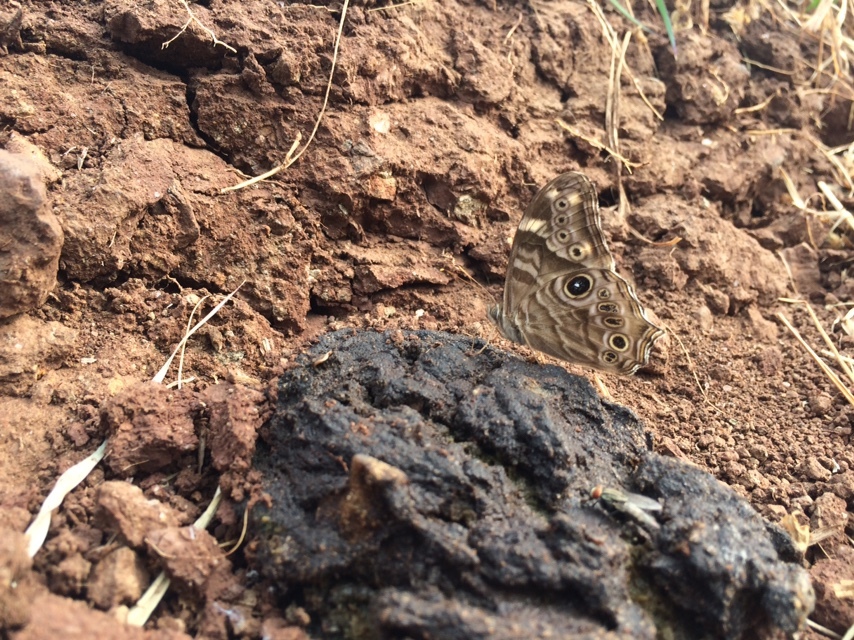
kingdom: Animalia
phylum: Arthropoda
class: Insecta
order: Lepidoptera
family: Nymphalidae
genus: Lethe
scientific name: Lethe rohria
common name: Common treebrown
